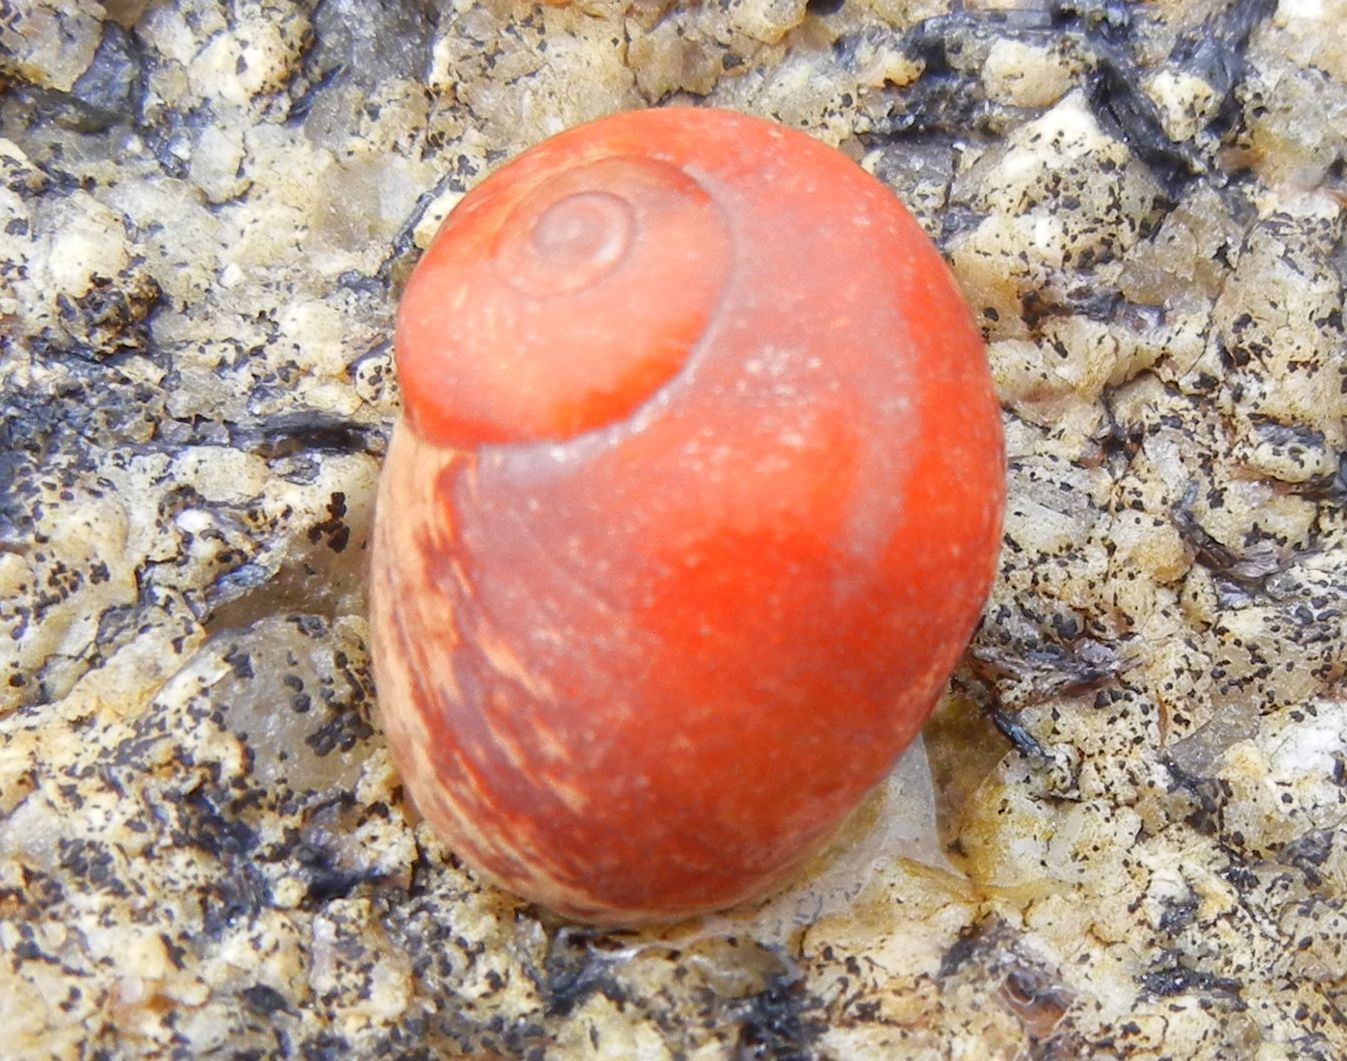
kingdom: Animalia
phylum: Mollusca
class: Gastropoda
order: Littorinimorpha
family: Littorinidae
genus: Littorina
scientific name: Littorina
